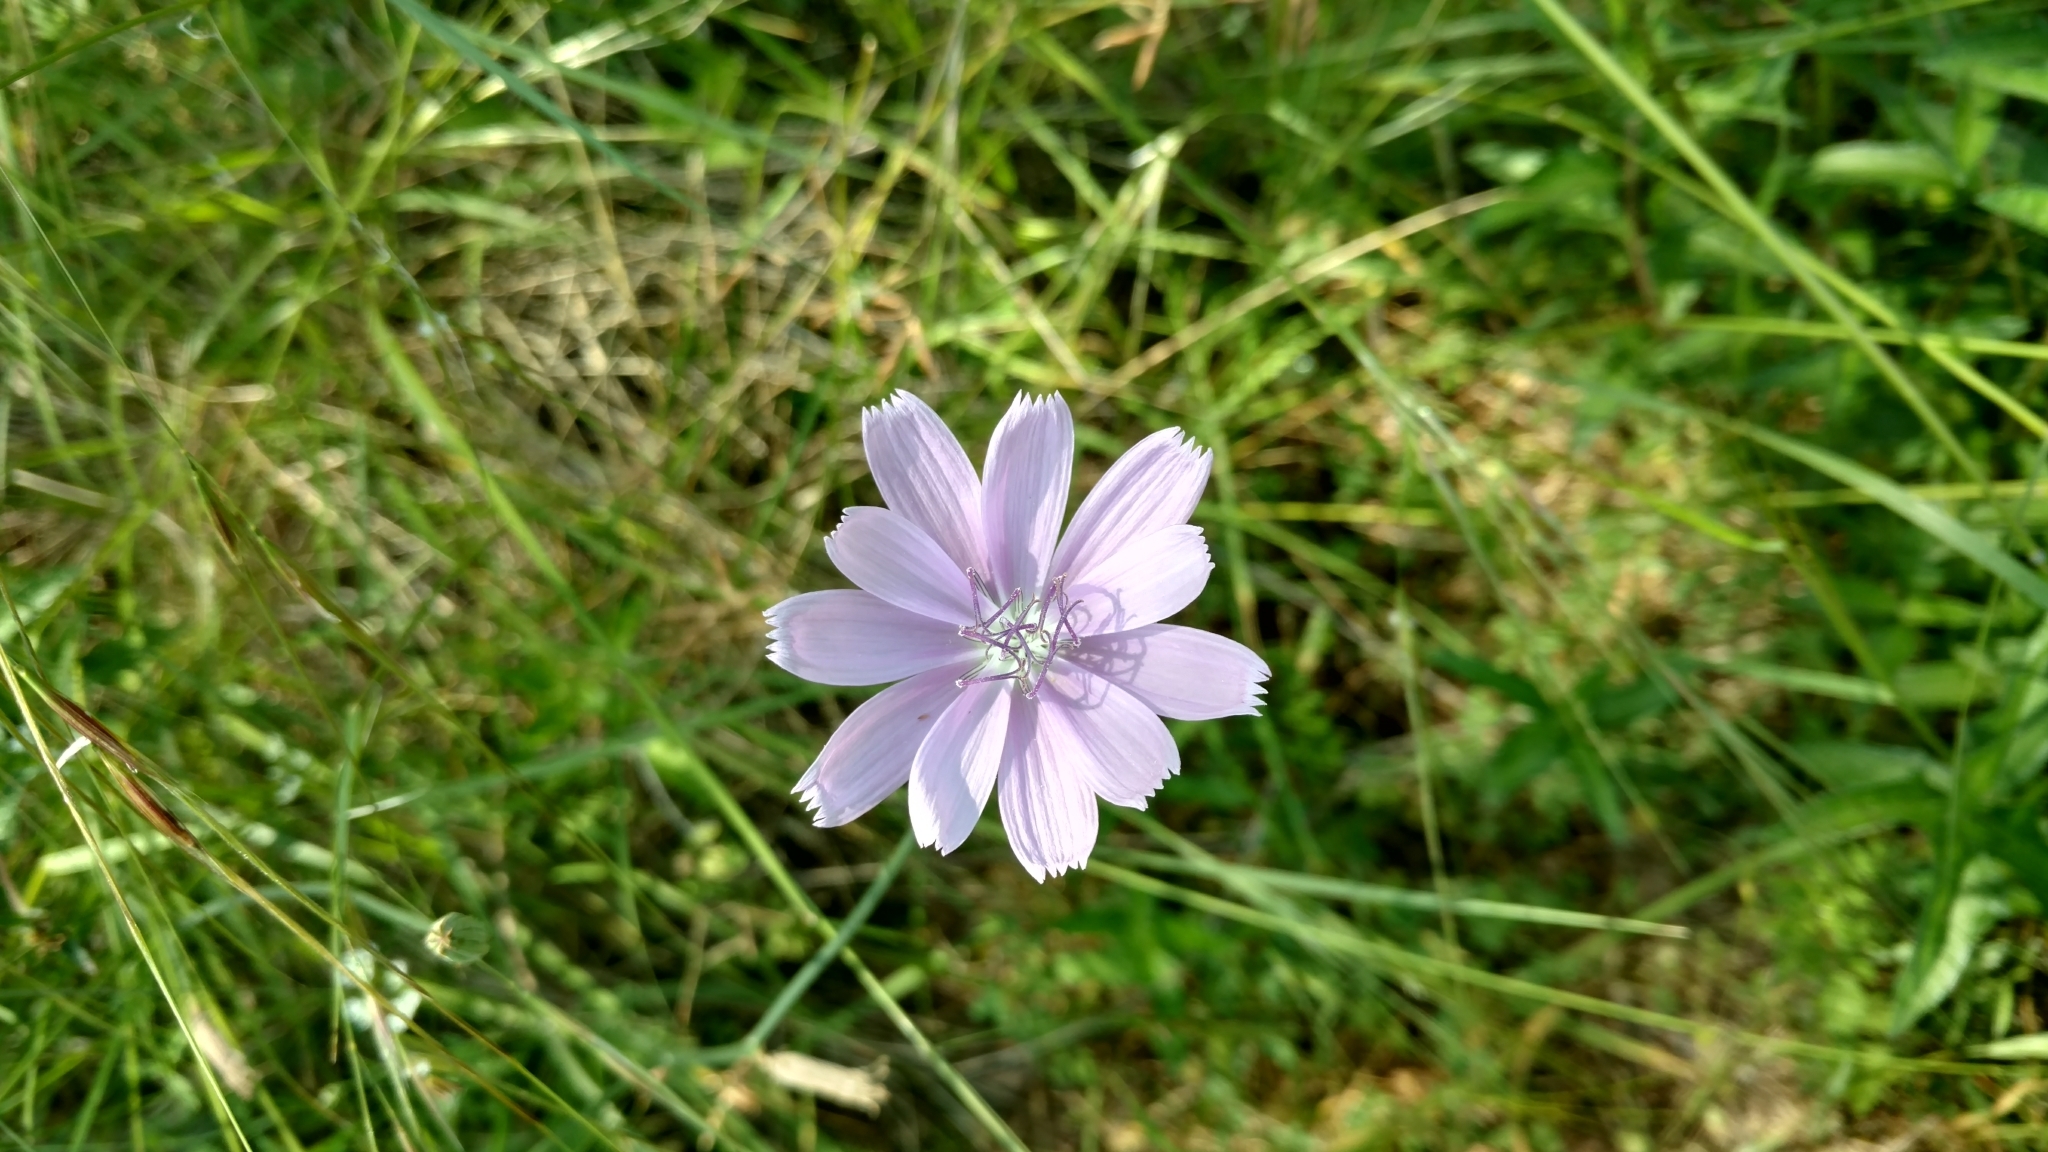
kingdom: Plantae
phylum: Tracheophyta
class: Magnoliopsida
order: Asterales
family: Asteraceae
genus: Lygodesmia
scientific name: Lygodesmia texana
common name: Texas skeleton-plant
